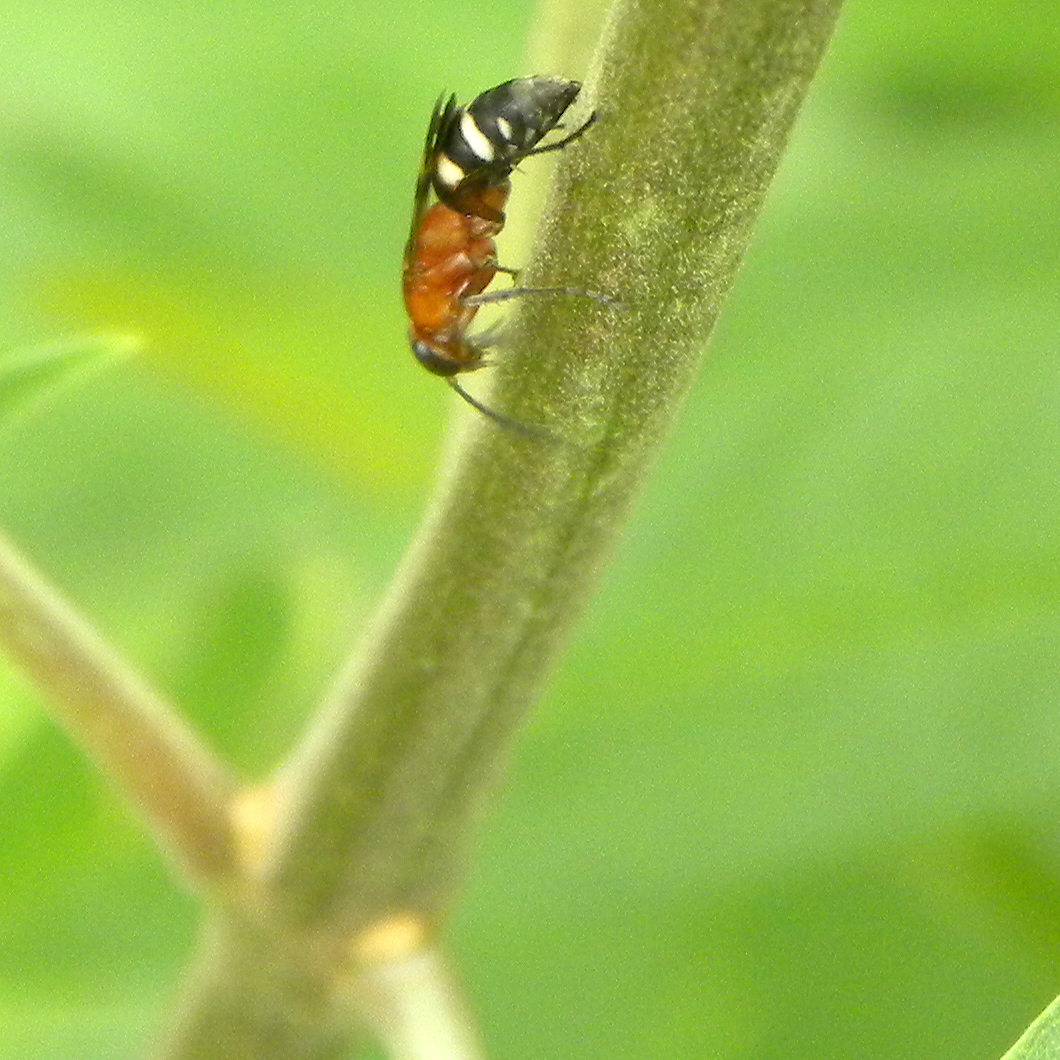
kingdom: Animalia
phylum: Arthropoda
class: Insecta
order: Hymenoptera
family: Pompilidae
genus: Psorthaspis
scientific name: Psorthaspis luctuosa
